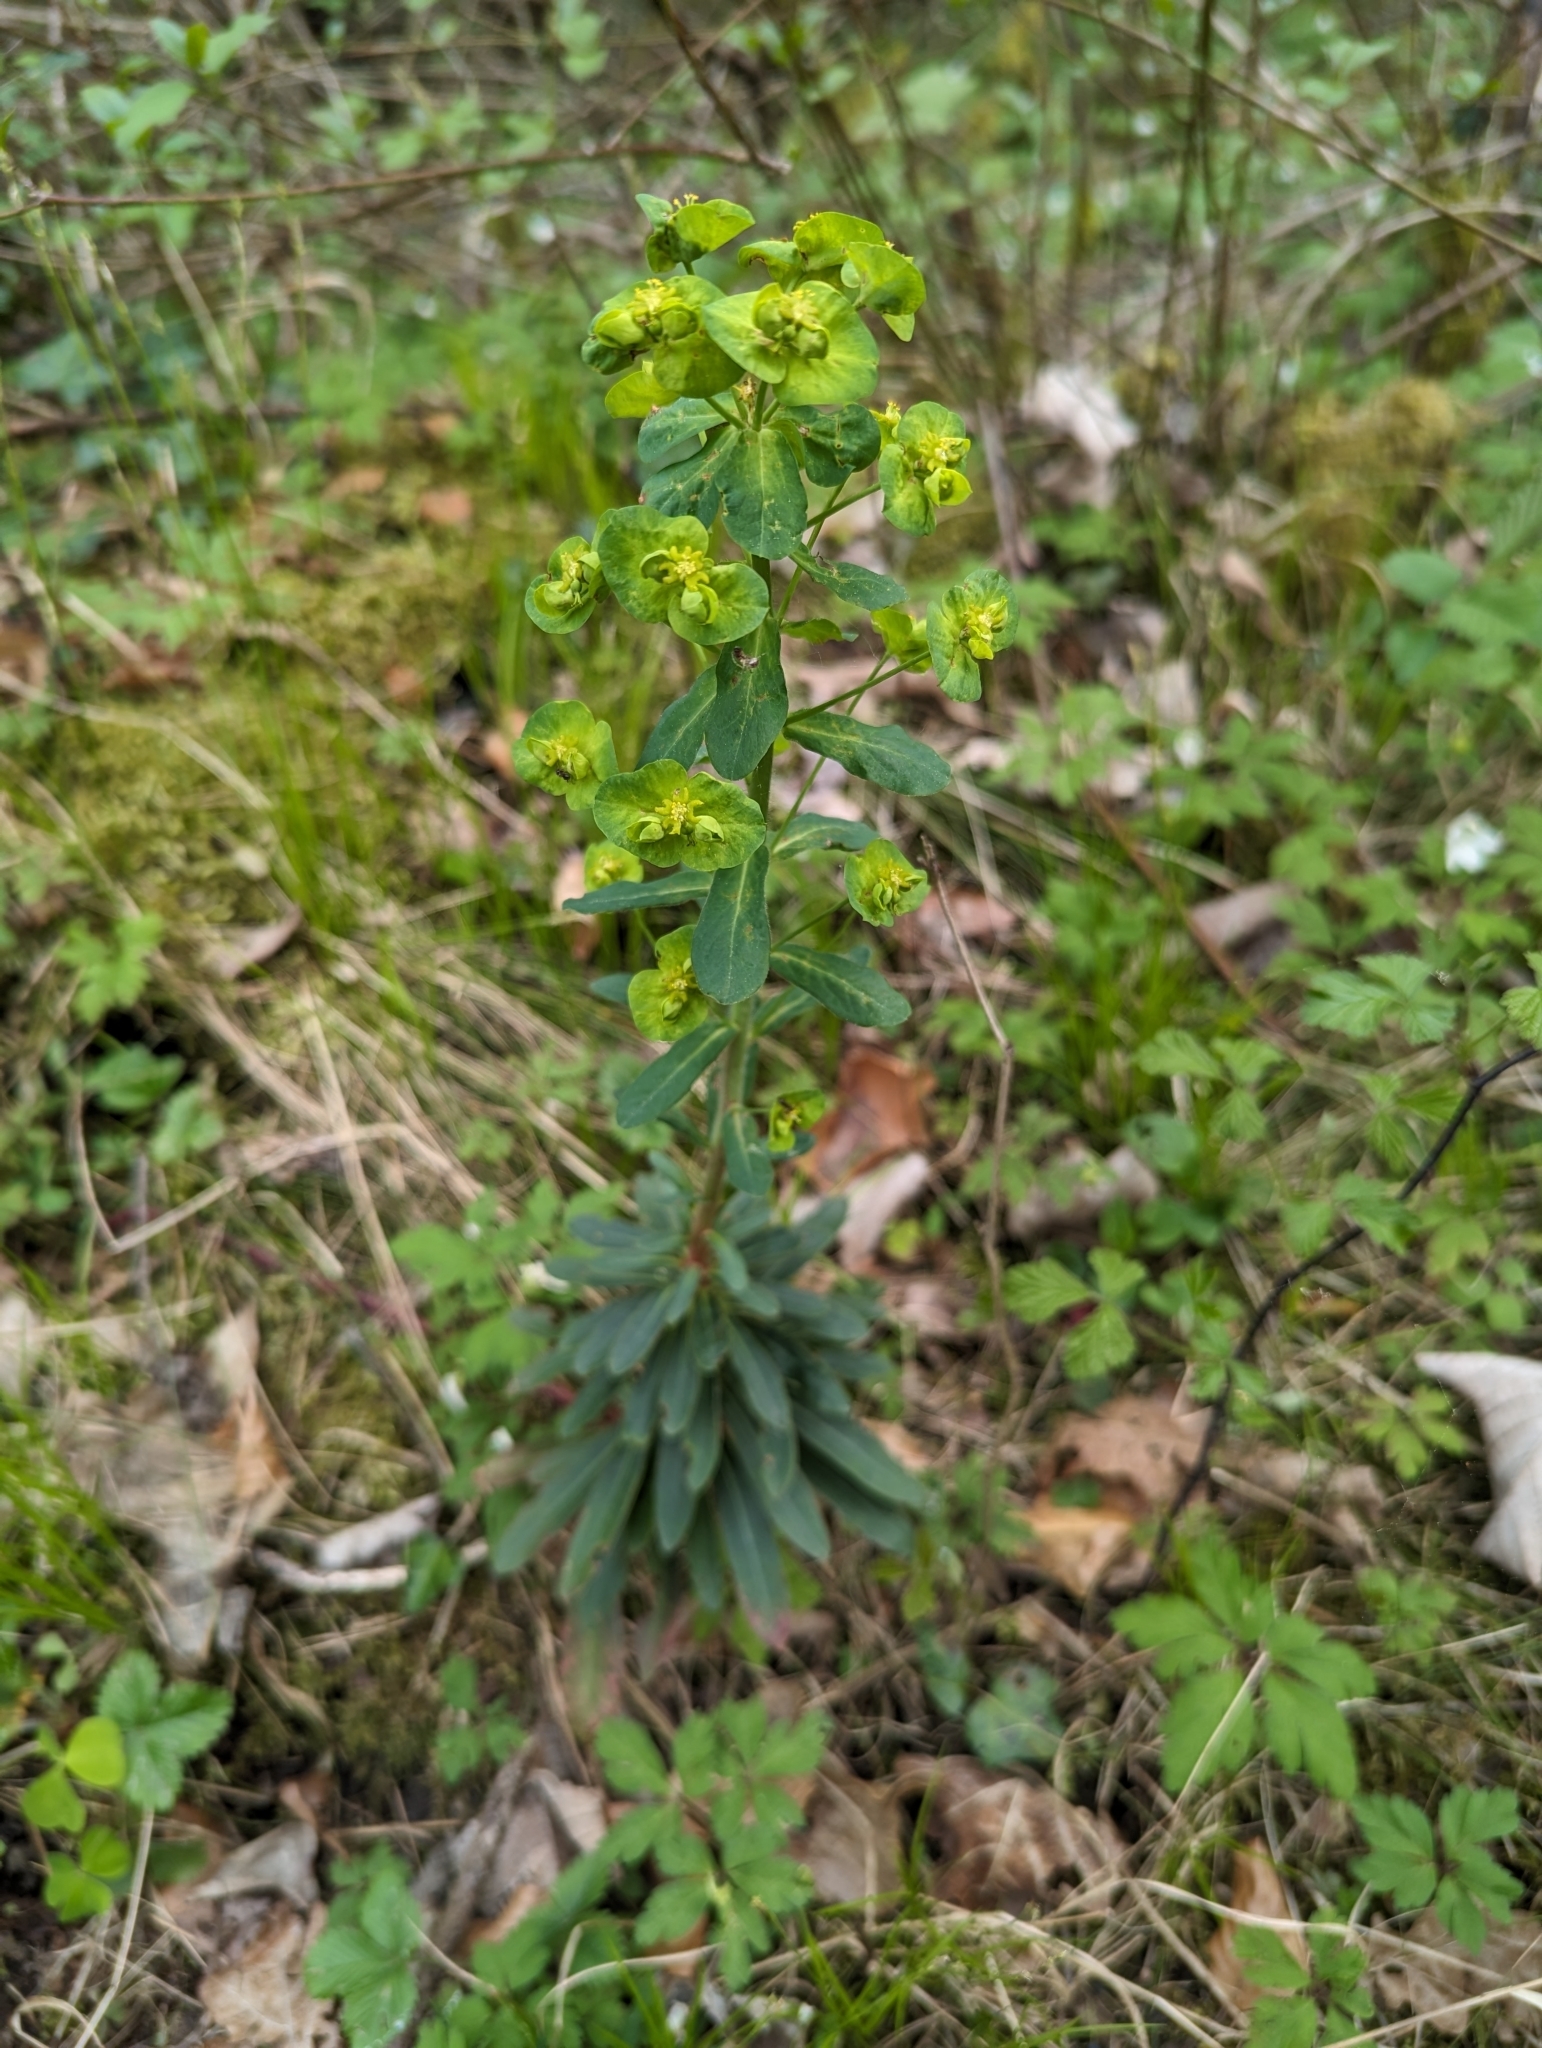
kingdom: Plantae
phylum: Tracheophyta
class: Magnoliopsida
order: Malpighiales
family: Euphorbiaceae
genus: Euphorbia
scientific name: Euphorbia amygdaloides
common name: Wood spurge
